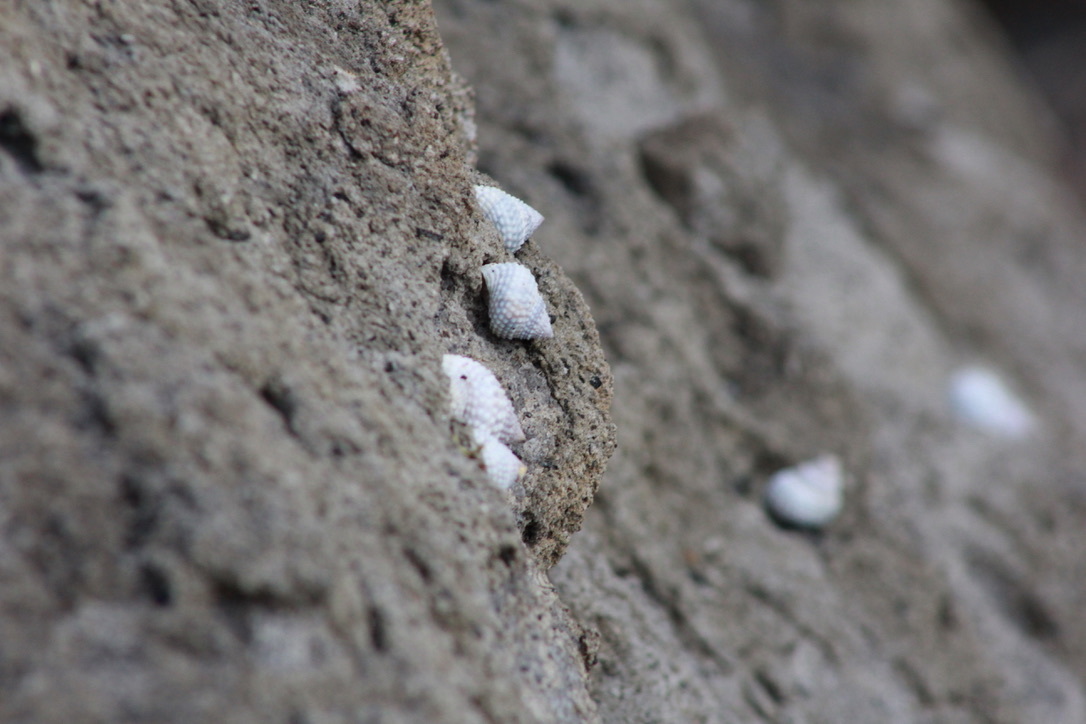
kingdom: Animalia
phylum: Mollusca
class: Gastropoda
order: Littorinimorpha
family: Littorinidae
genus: Cenchritis
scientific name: Cenchritis muricatus
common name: Beaded periwinkle
